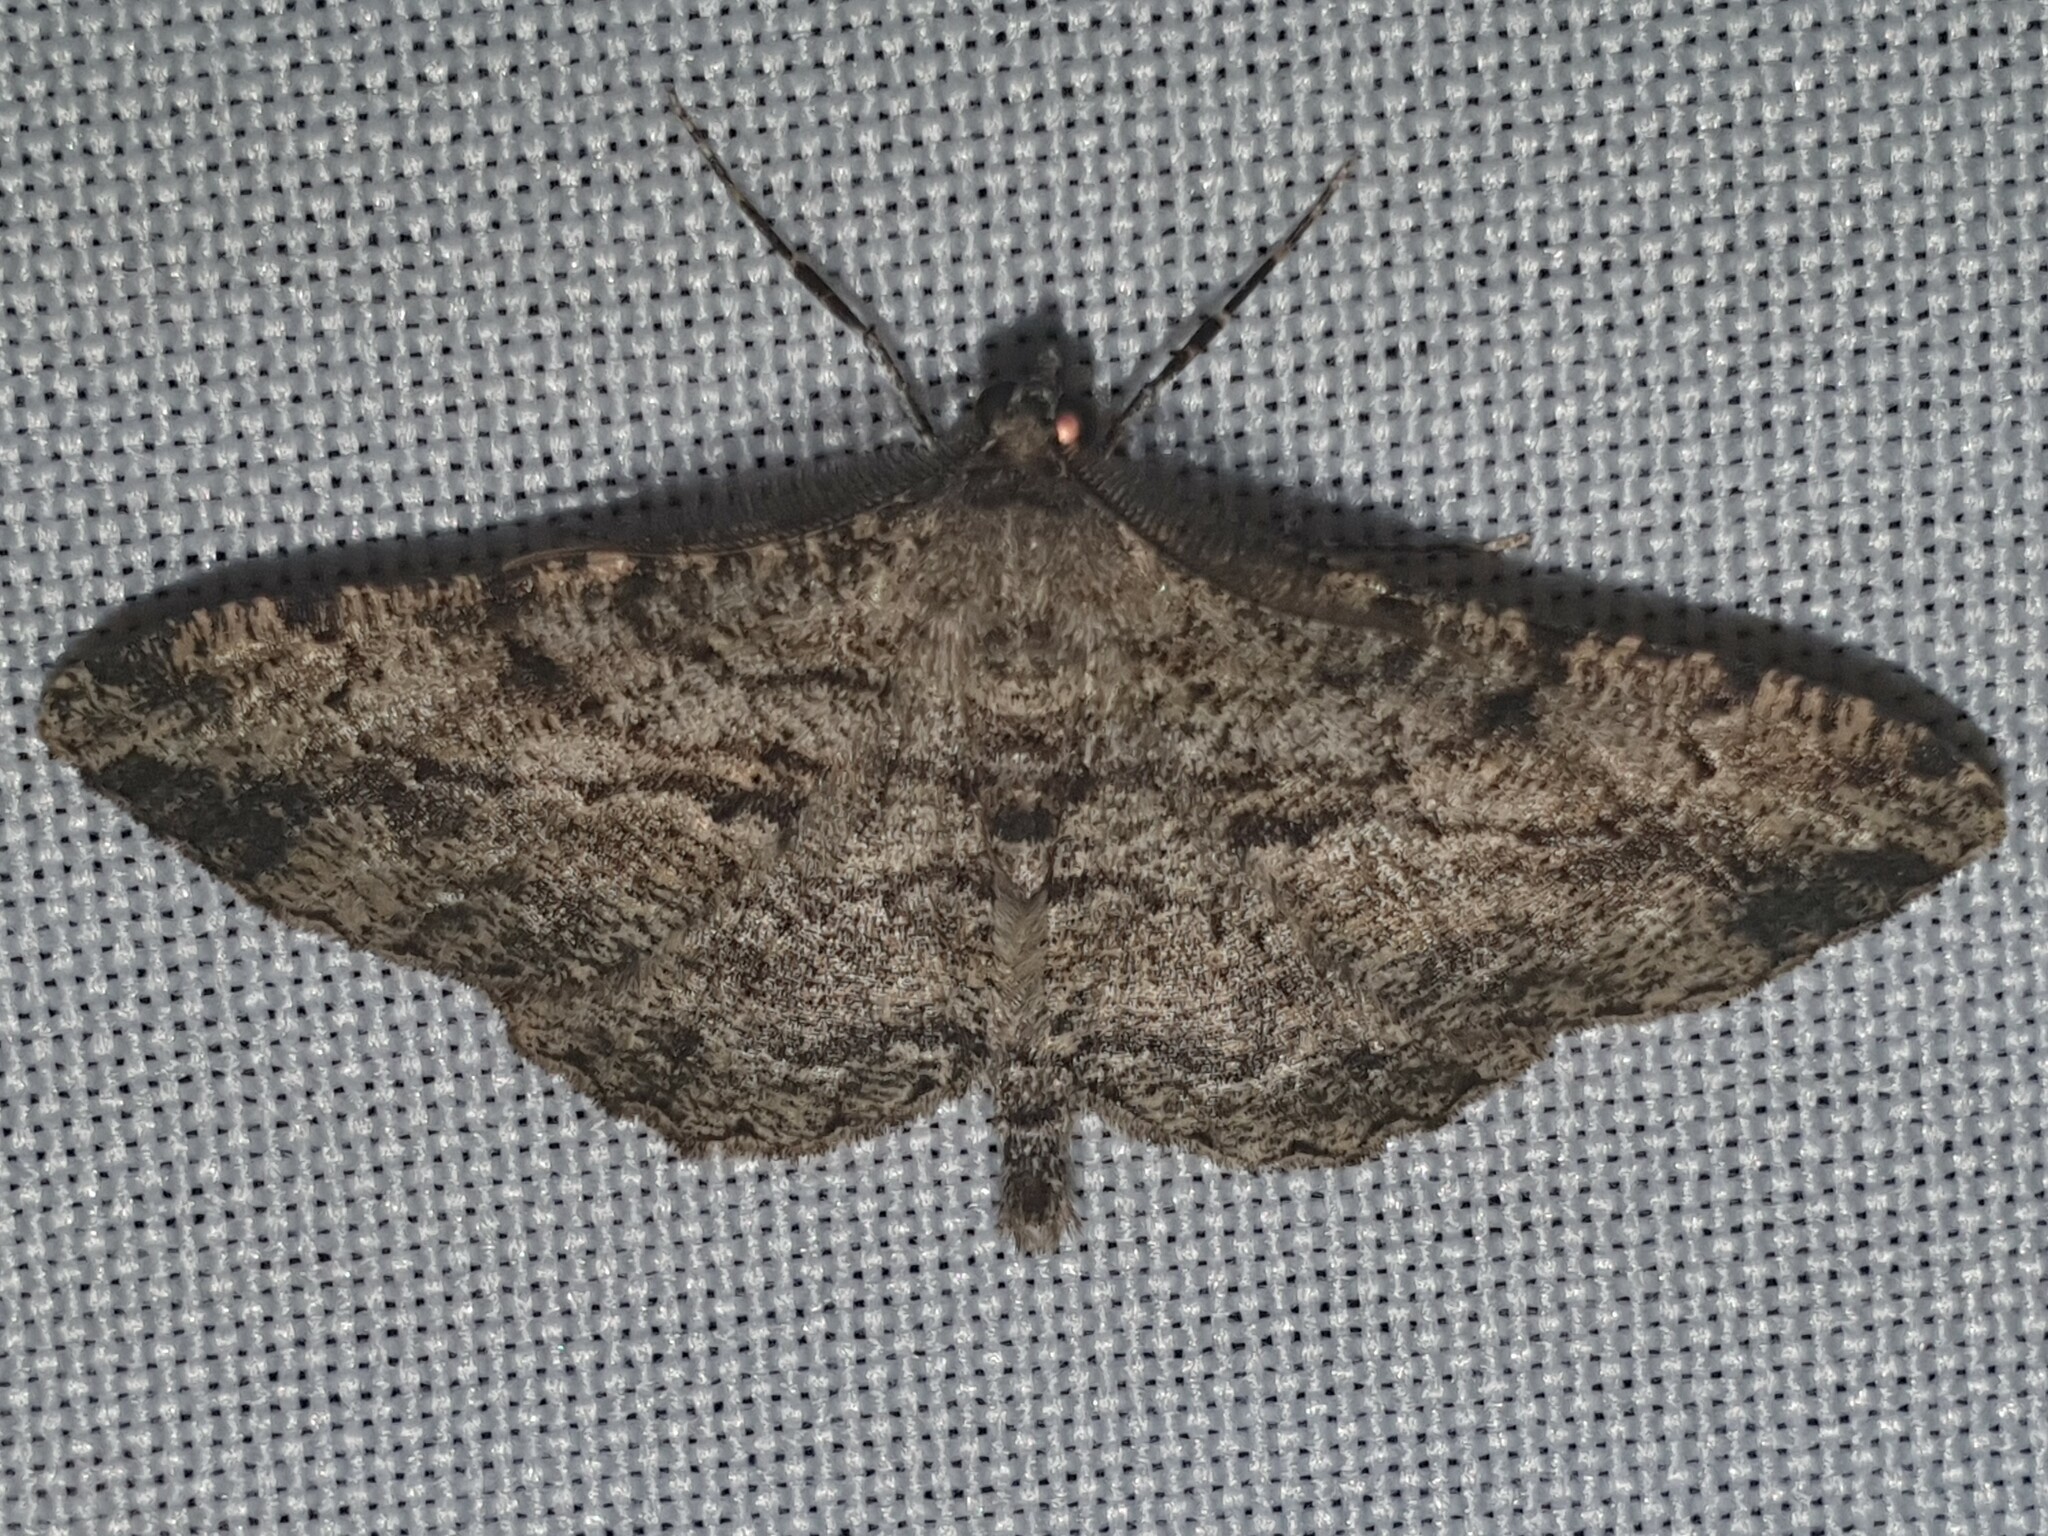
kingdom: Animalia
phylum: Arthropoda
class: Insecta
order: Lepidoptera
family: Geometridae
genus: Peribatodes
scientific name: Peribatodes rhomboidaria
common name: Willow beauty
